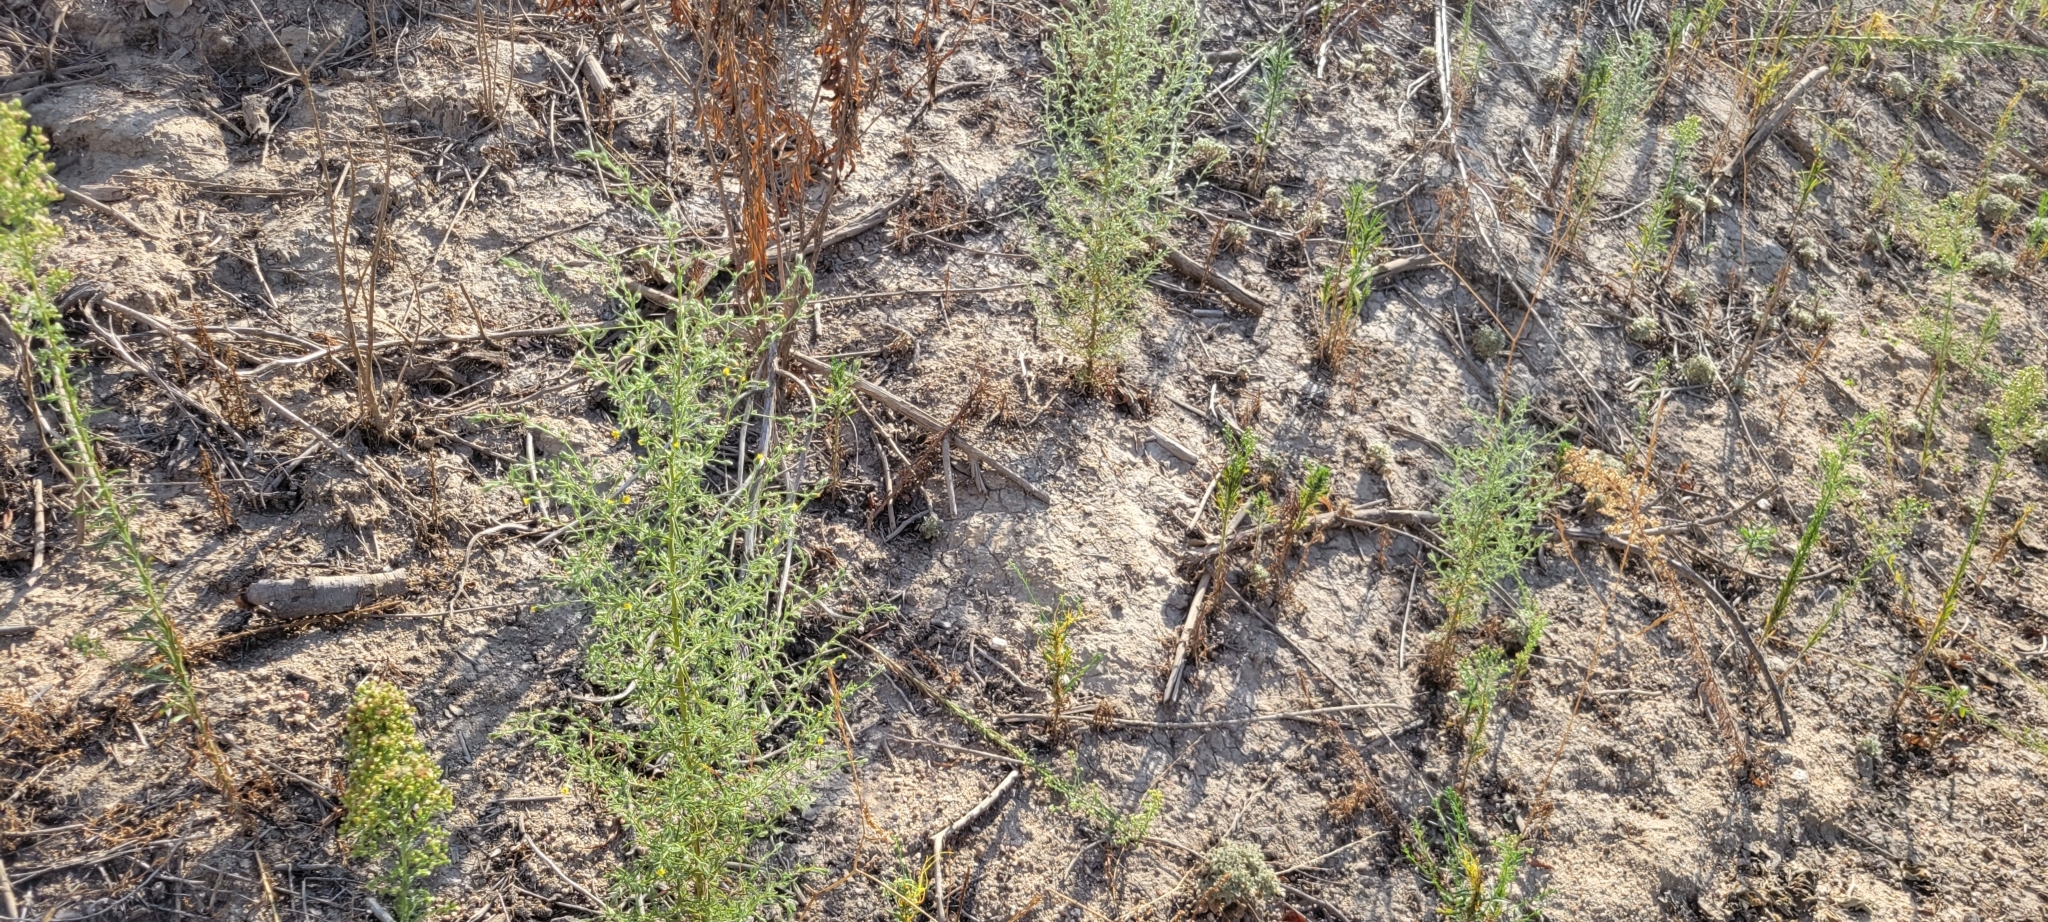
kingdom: Plantae
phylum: Tracheophyta
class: Magnoliopsida
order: Asterales
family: Asteraceae
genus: Dittrichia
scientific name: Dittrichia graveolens
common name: Stinking fleabane
